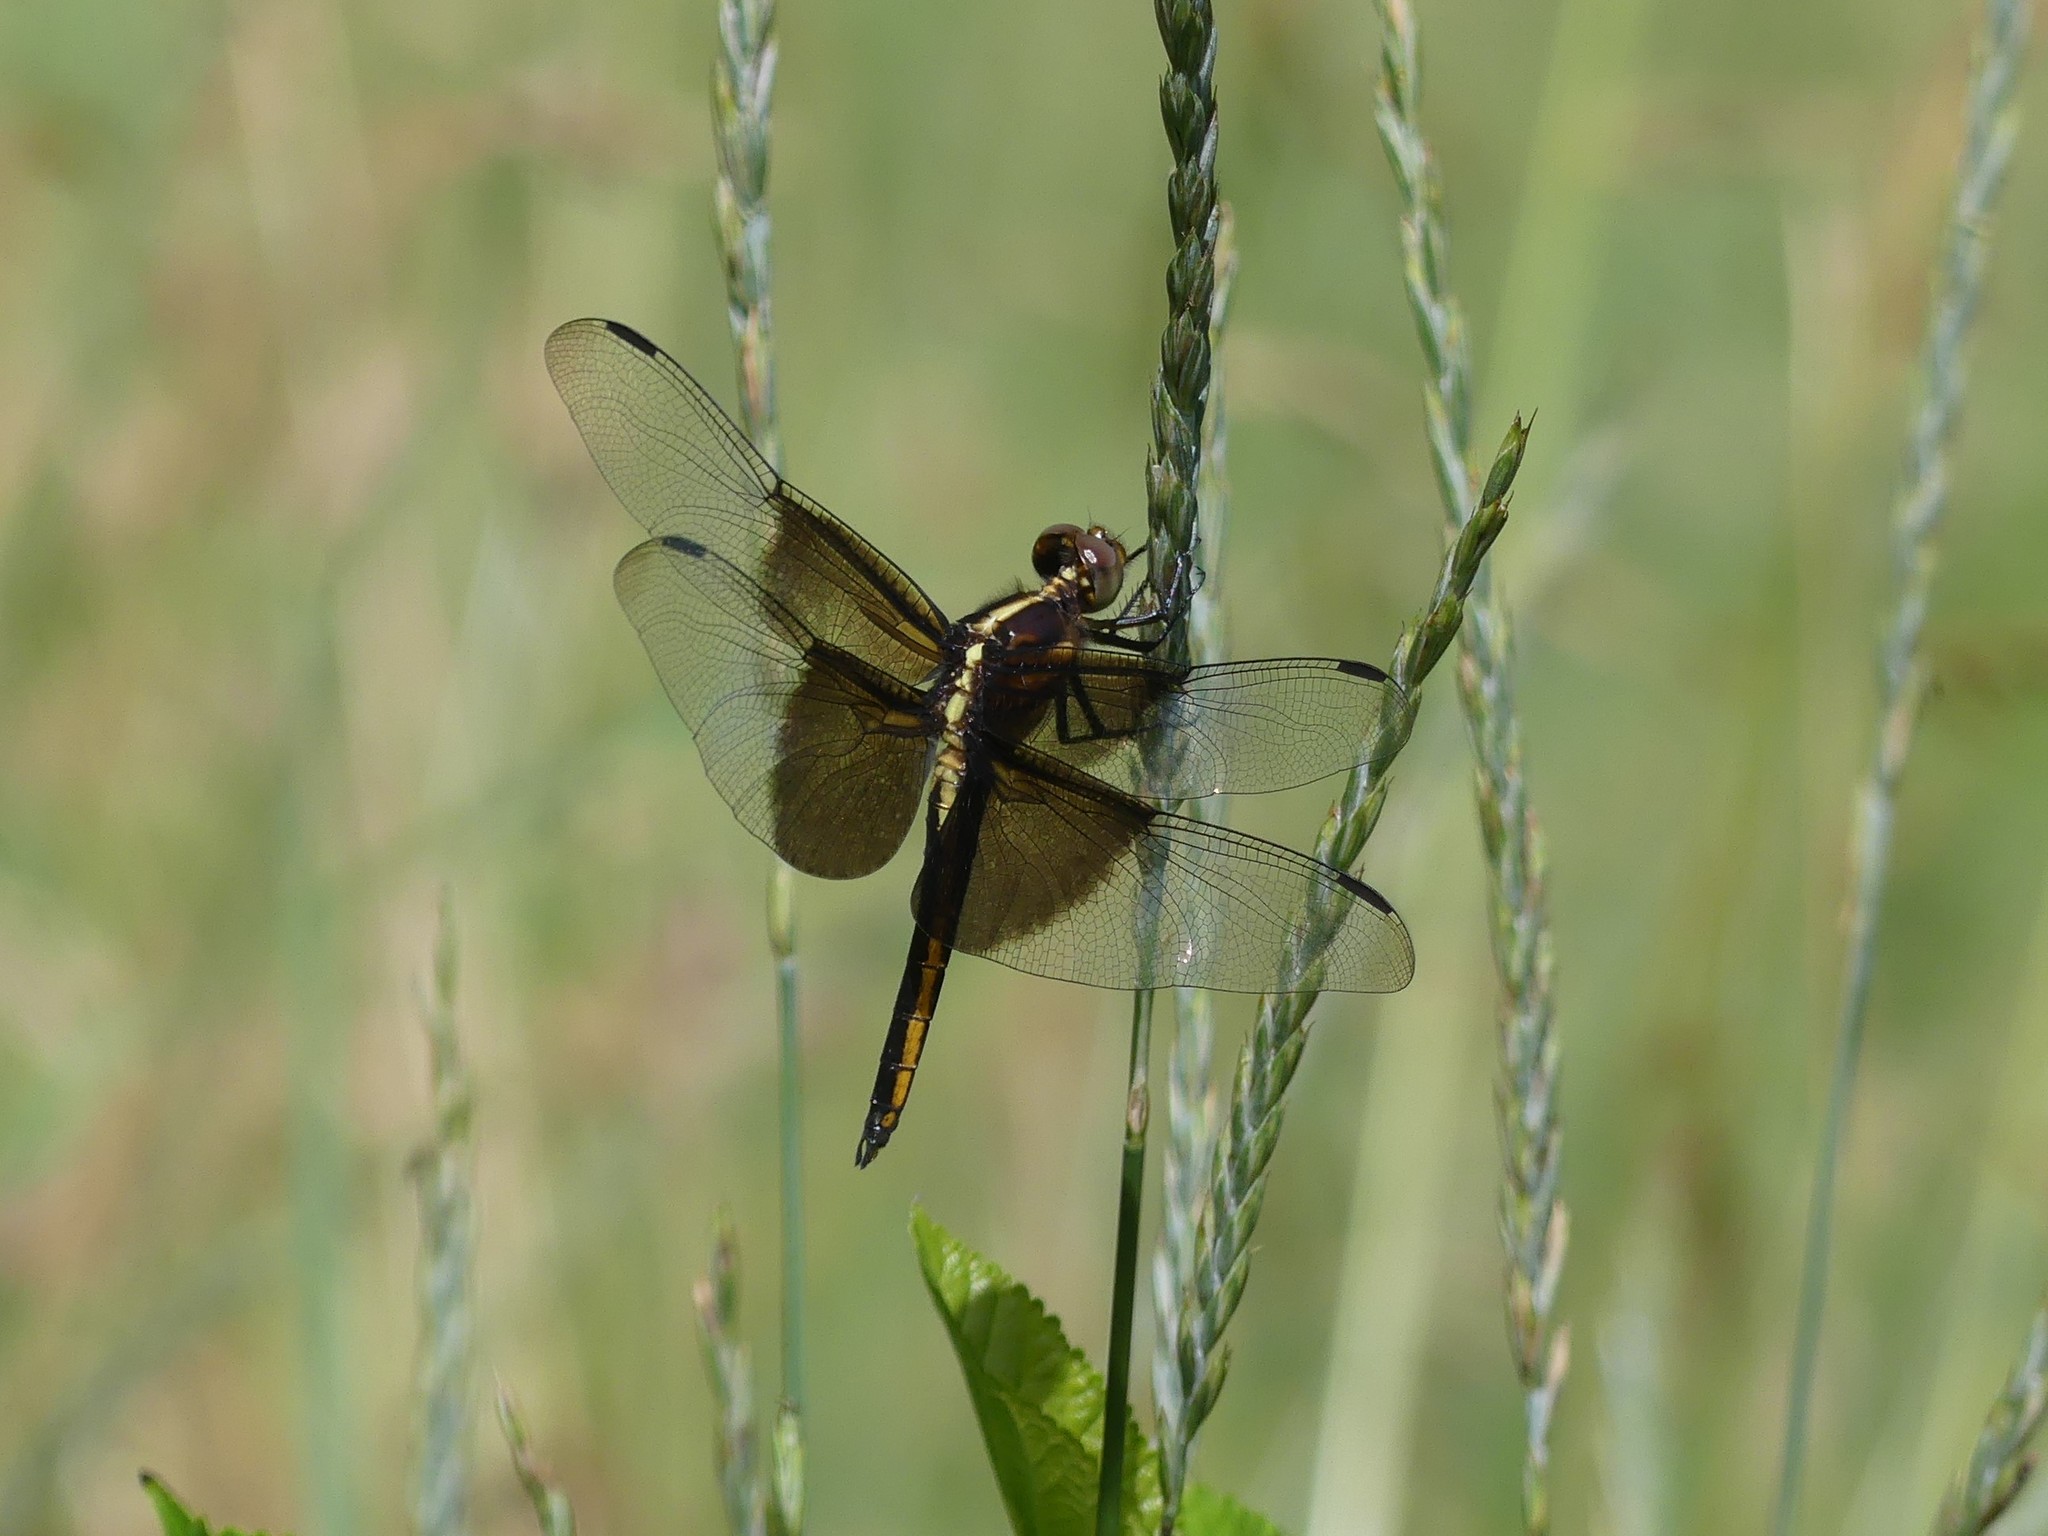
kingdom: Animalia
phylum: Arthropoda
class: Insecta
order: Odonata
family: Libellulidae
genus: Libellula
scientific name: Libellula luctuosa
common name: Widow skimmer
